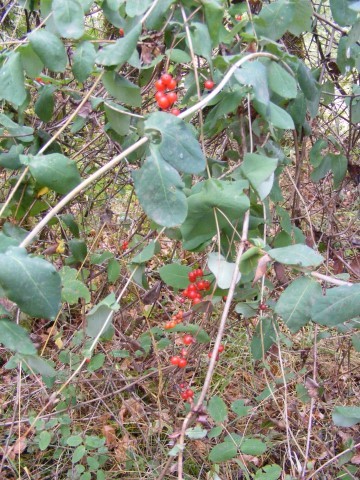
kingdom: Plantae
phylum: Tracheophyta
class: Magnoliopsida
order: Dipsacales
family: Caprifoliaceae
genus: Lonicera
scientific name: Lonicera
